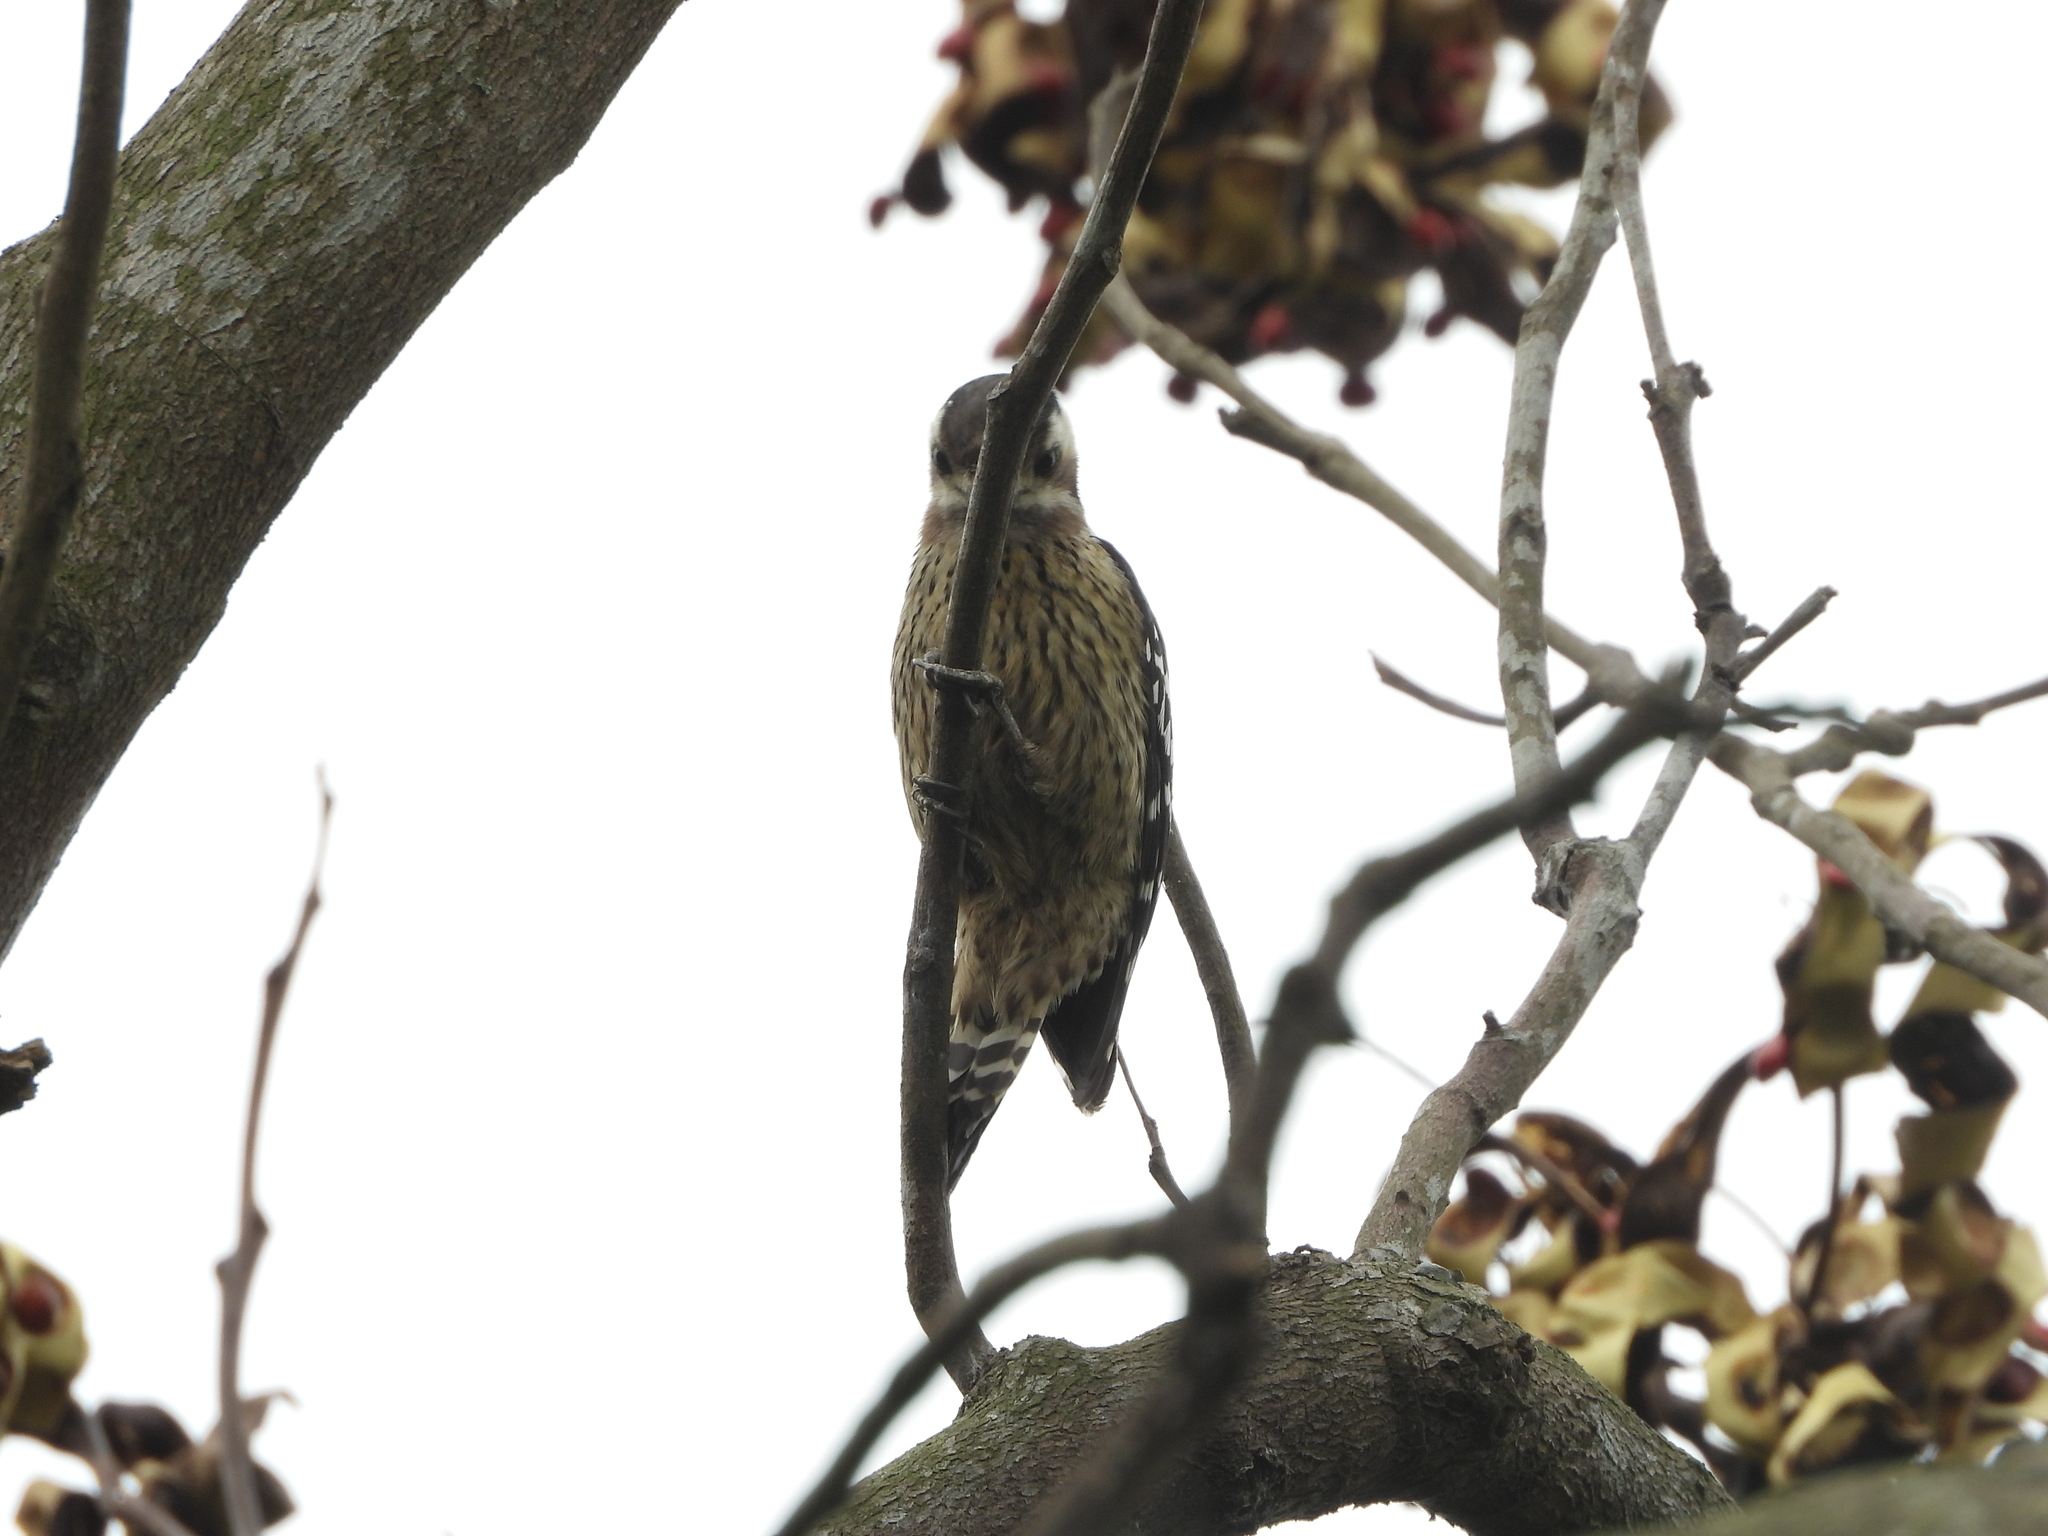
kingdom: Animalia
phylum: Chordata
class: Aves
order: Piciformes
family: Picidae
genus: Yungipicus
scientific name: Yungipicus canicapillus
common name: Grey-capped pygmy woodpecker
